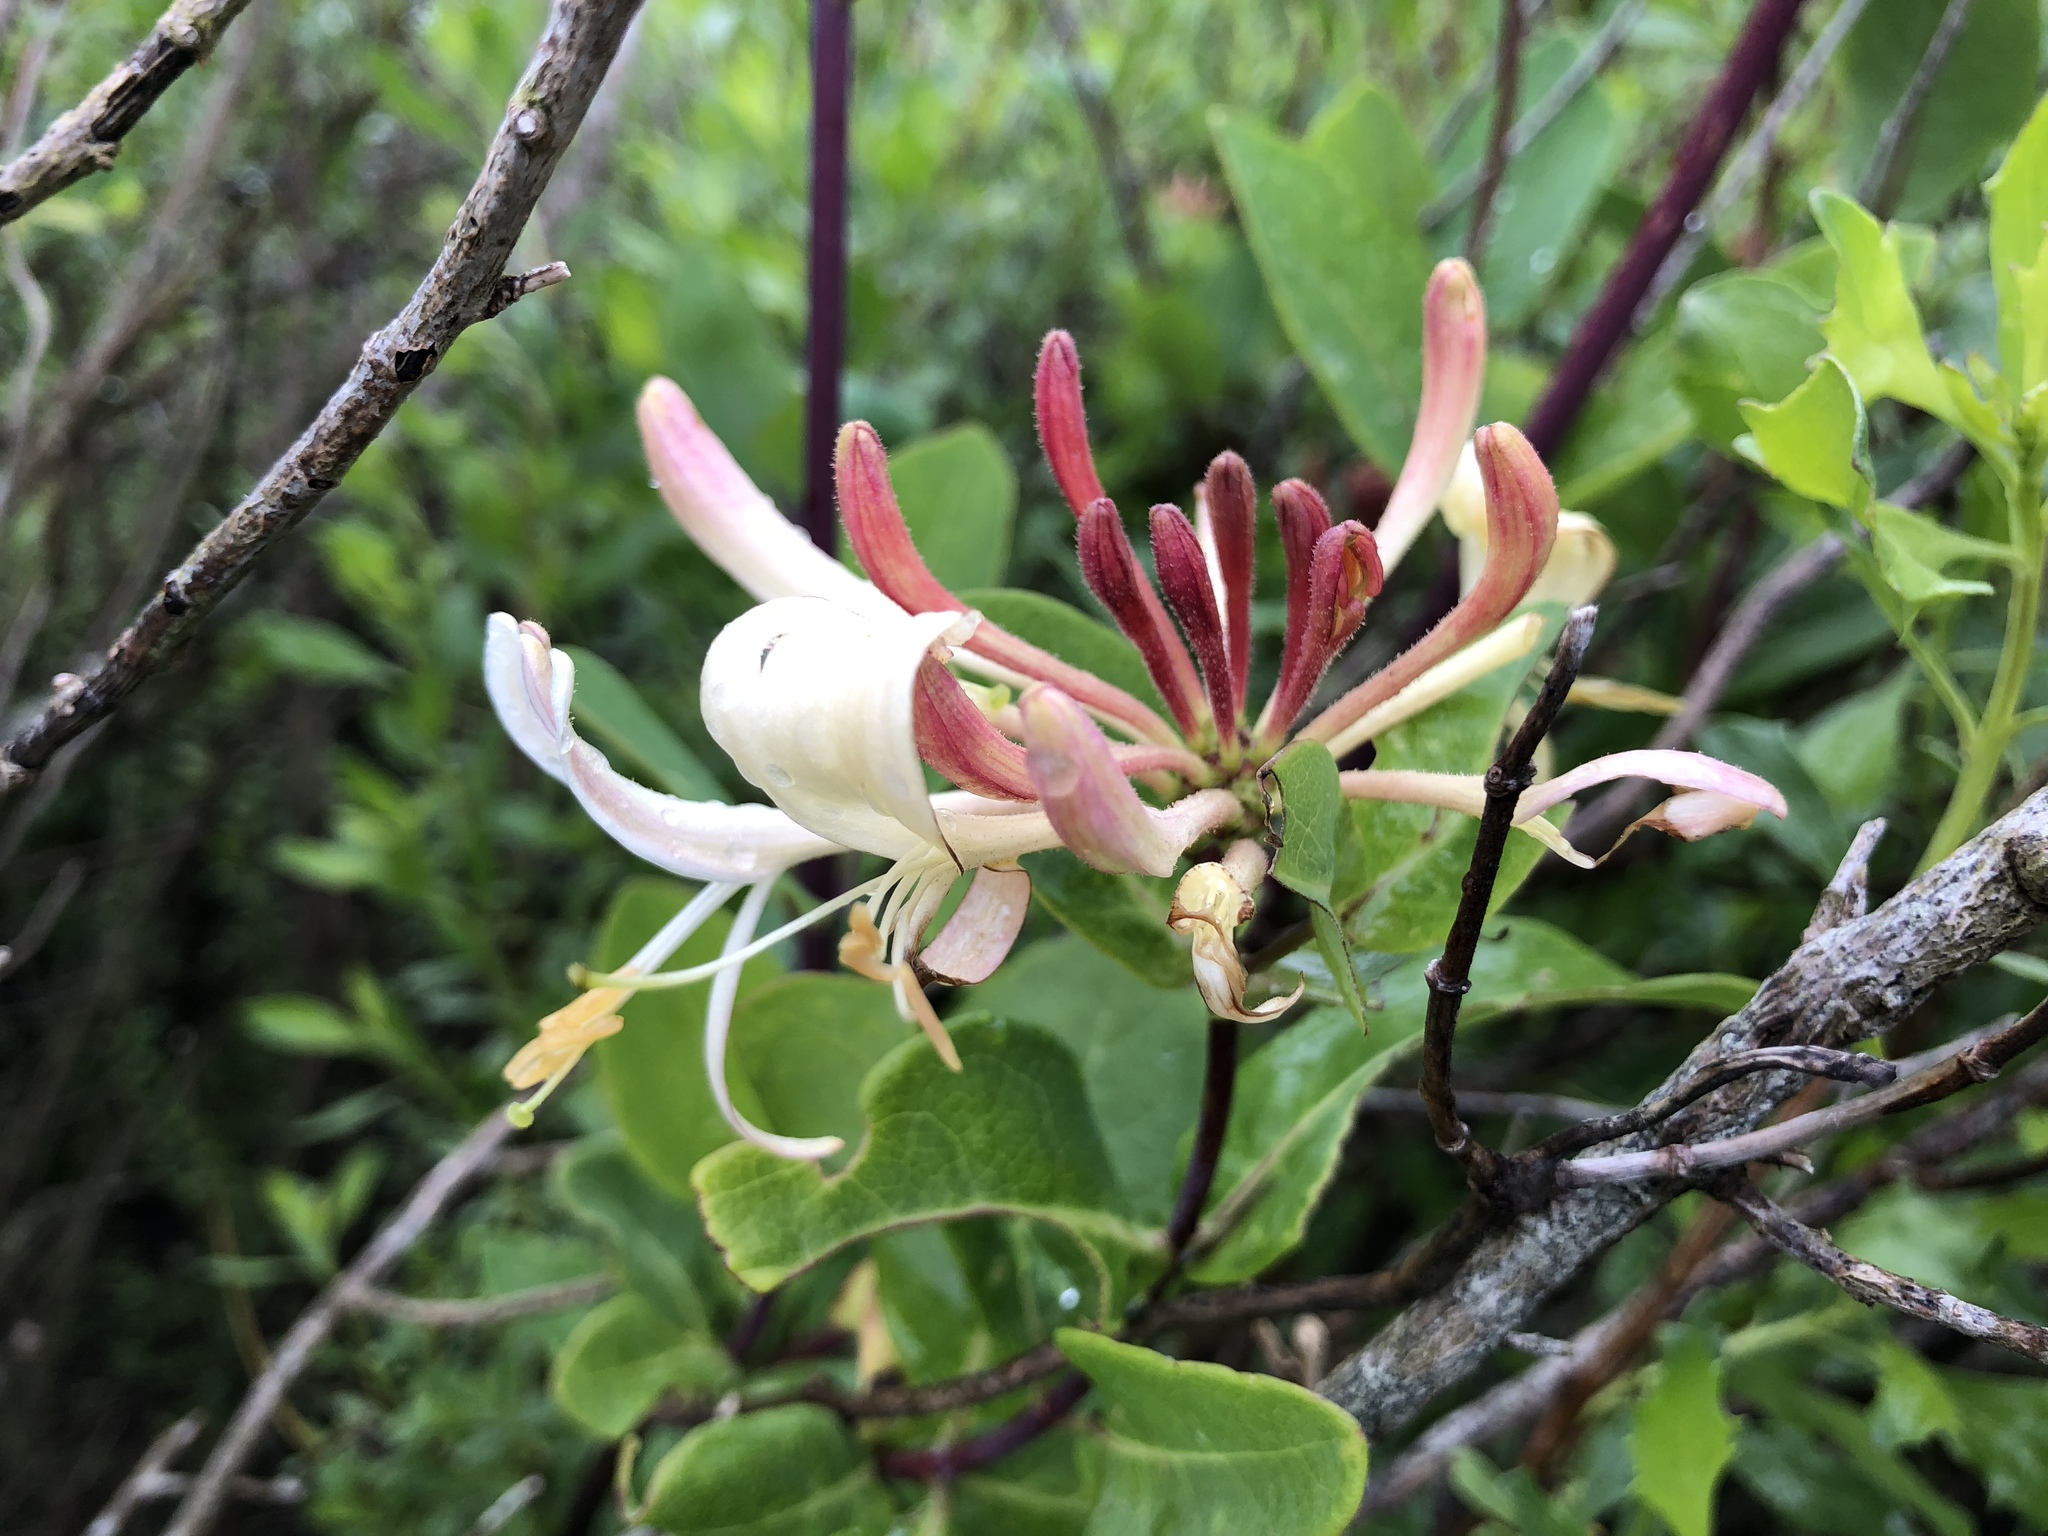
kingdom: Plantae
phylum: Tracheophyta
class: Magnoliopsida
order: Dipsacales
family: Caprifoliaceae
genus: Lonicera
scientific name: Lonicera periclymenum
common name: European honeysuckle
